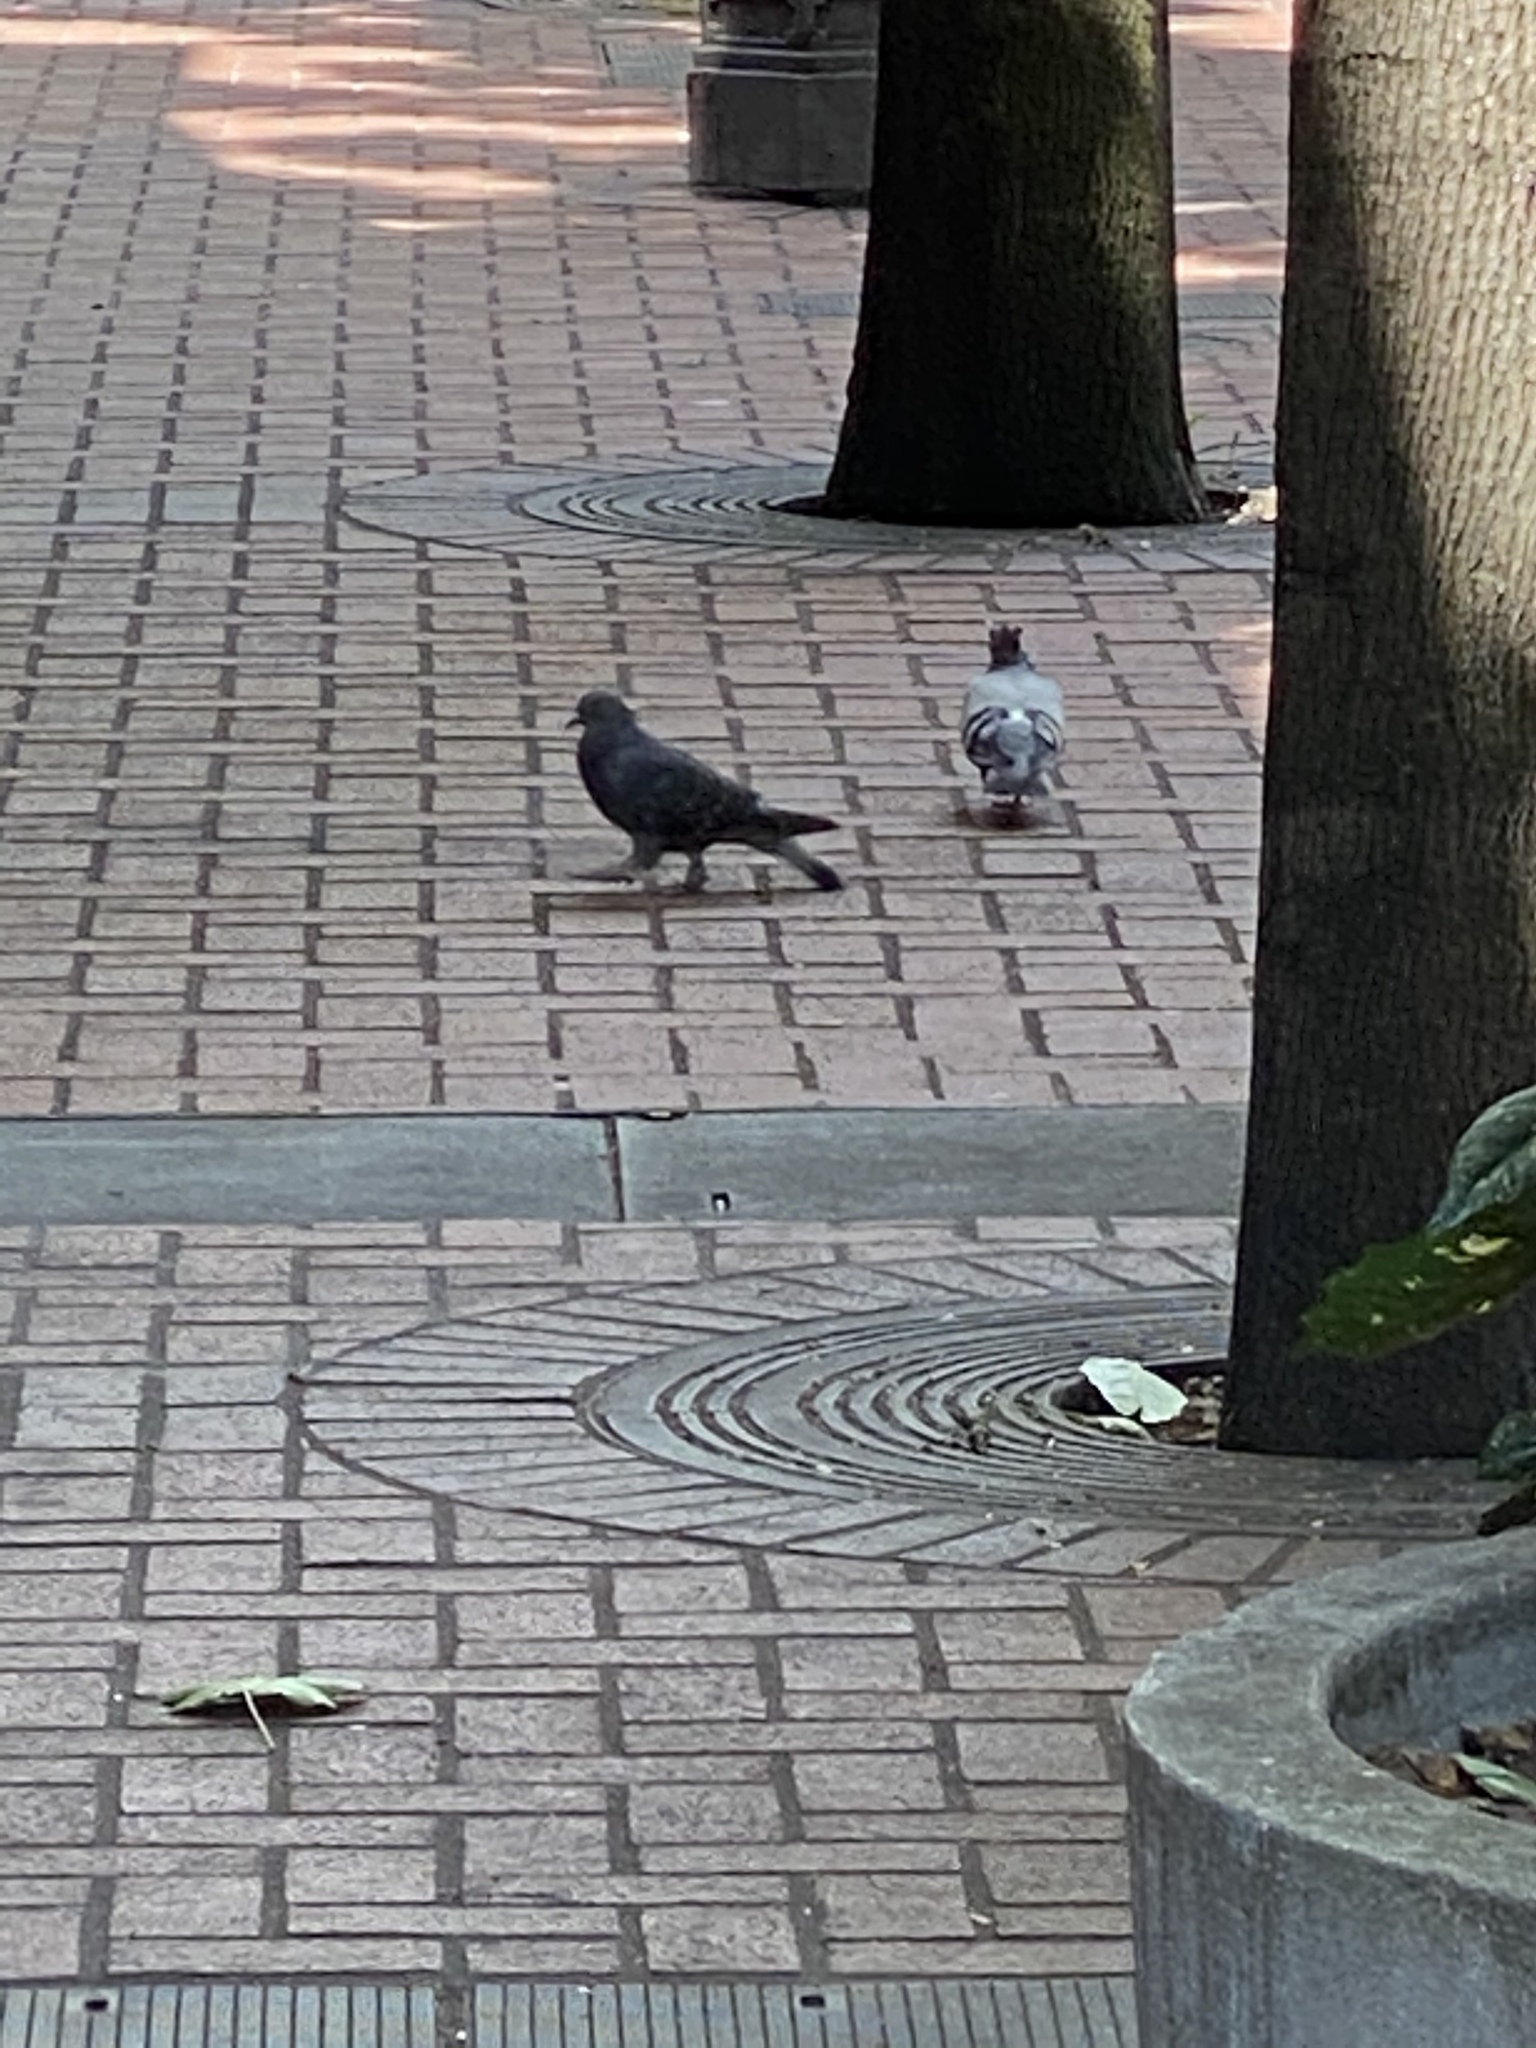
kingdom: Animalia
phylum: Chordata
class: Aves
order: Columbiformes
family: Columbidae
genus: Columba
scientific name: Columba livia
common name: Rock pigeon
